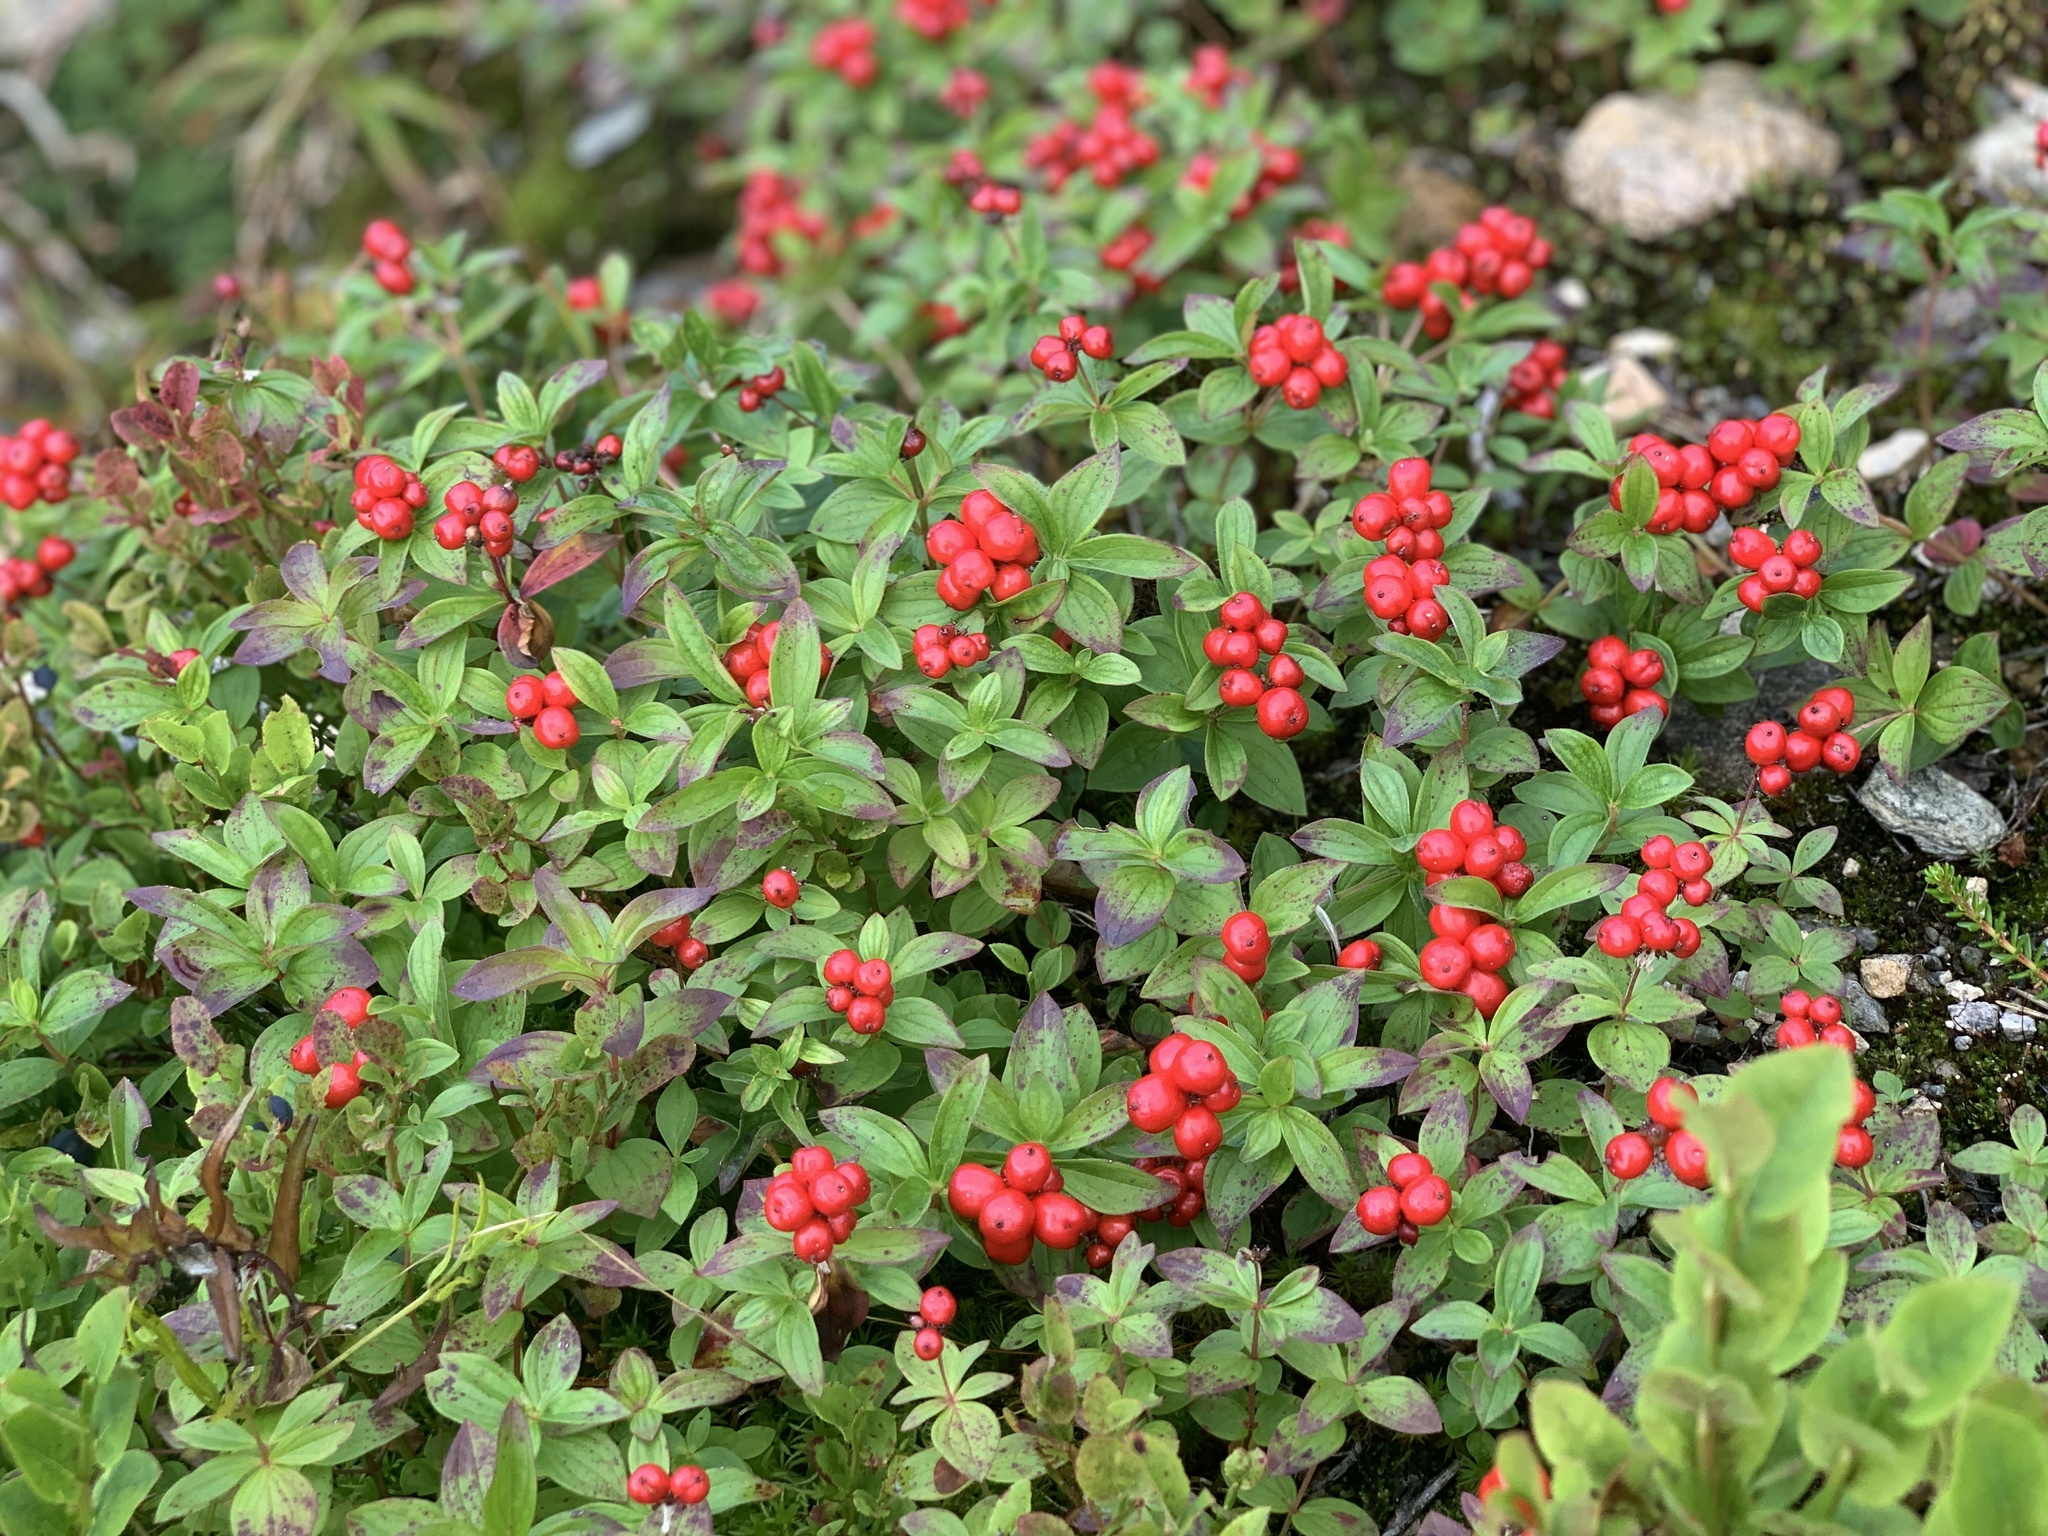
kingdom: Plantae
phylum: Tracheophyta
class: Magnoliopsida
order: Cornales
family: Cornaceae
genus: Cornus
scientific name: Cornus suecica
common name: Dwarf cornel
